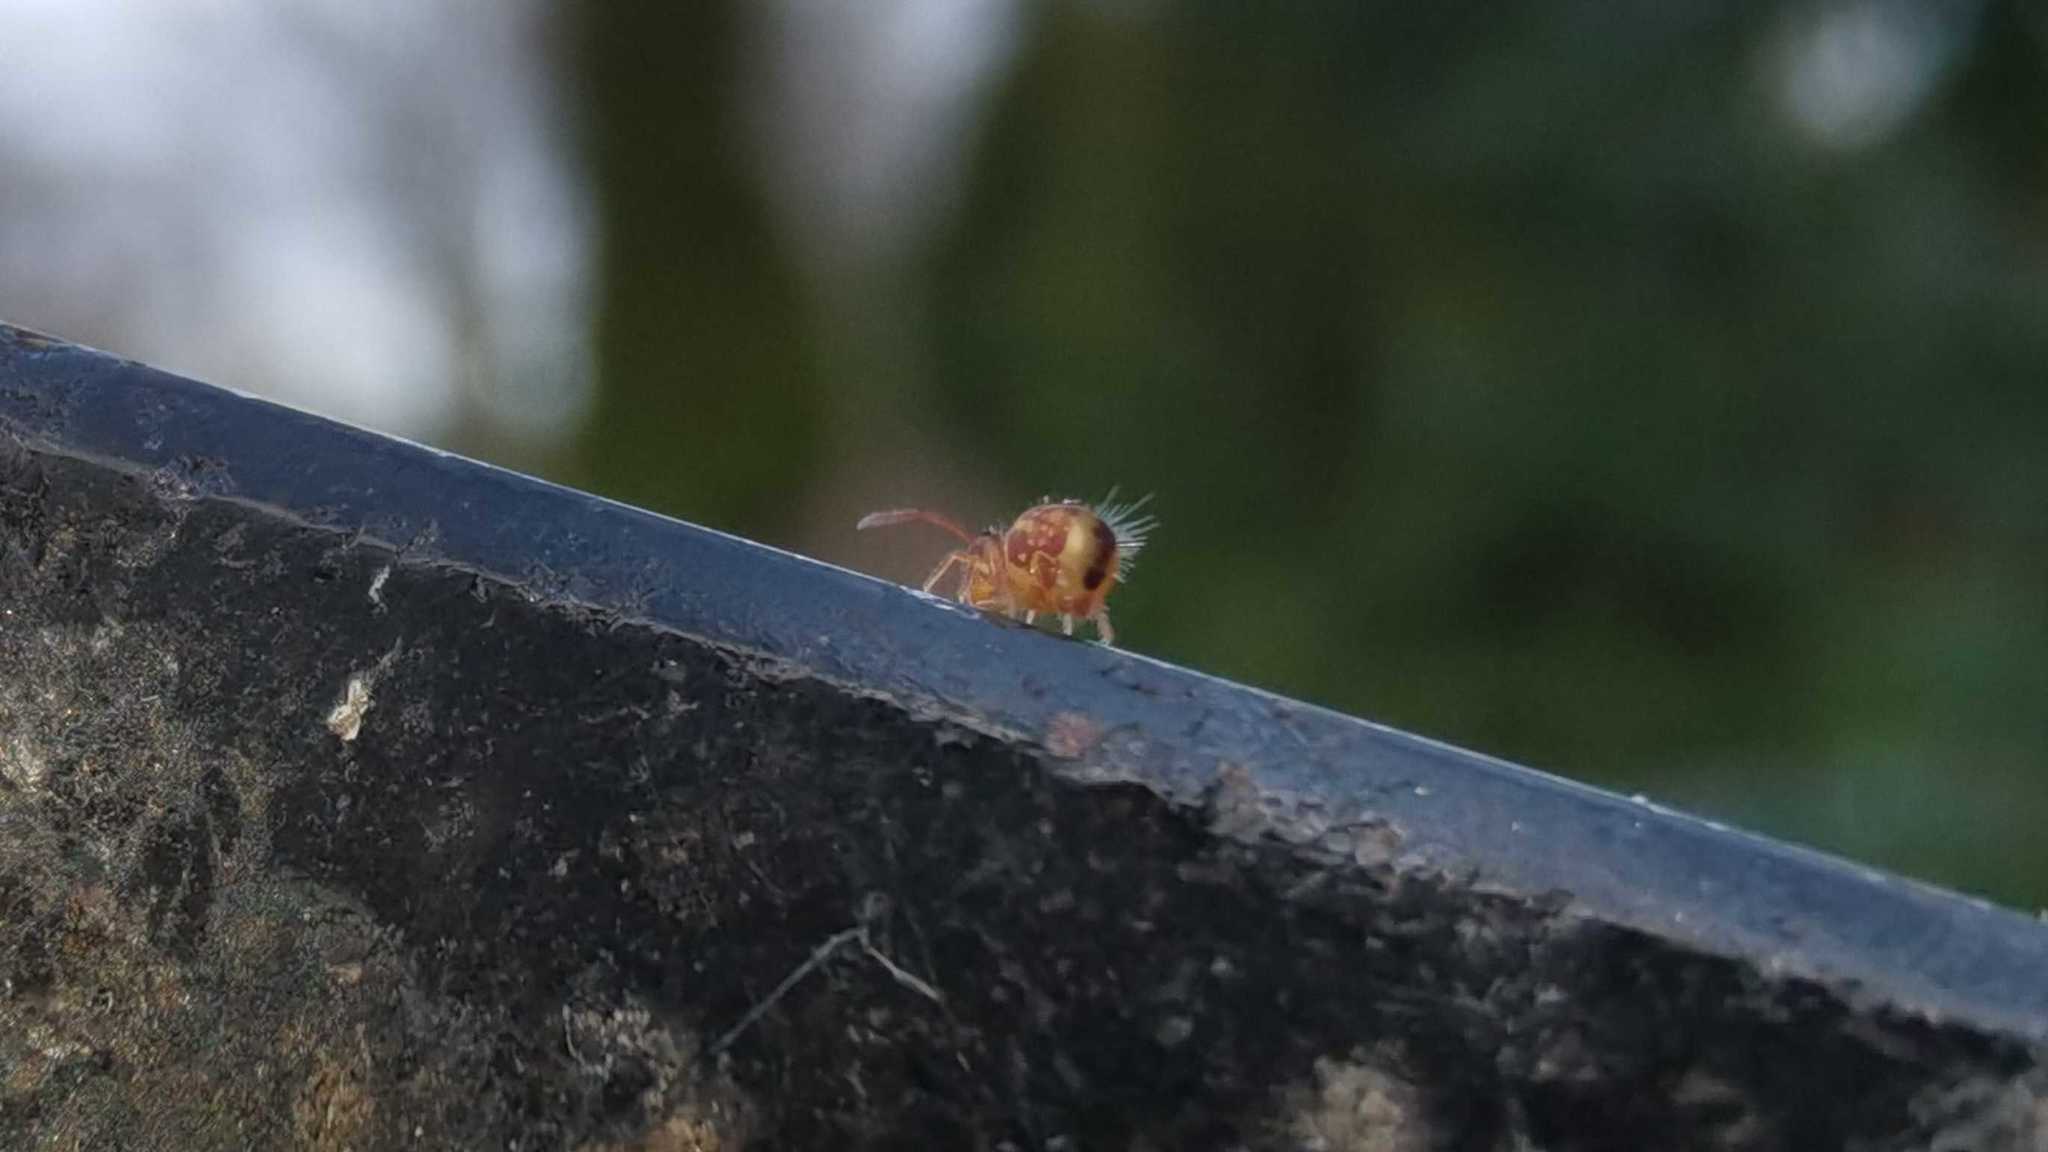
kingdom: Animalia
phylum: Arthropoda
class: Collembola
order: Symphypleona
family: Dicyrtomidae
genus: Dicyrtomina
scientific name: Dicyrtomina ornata
